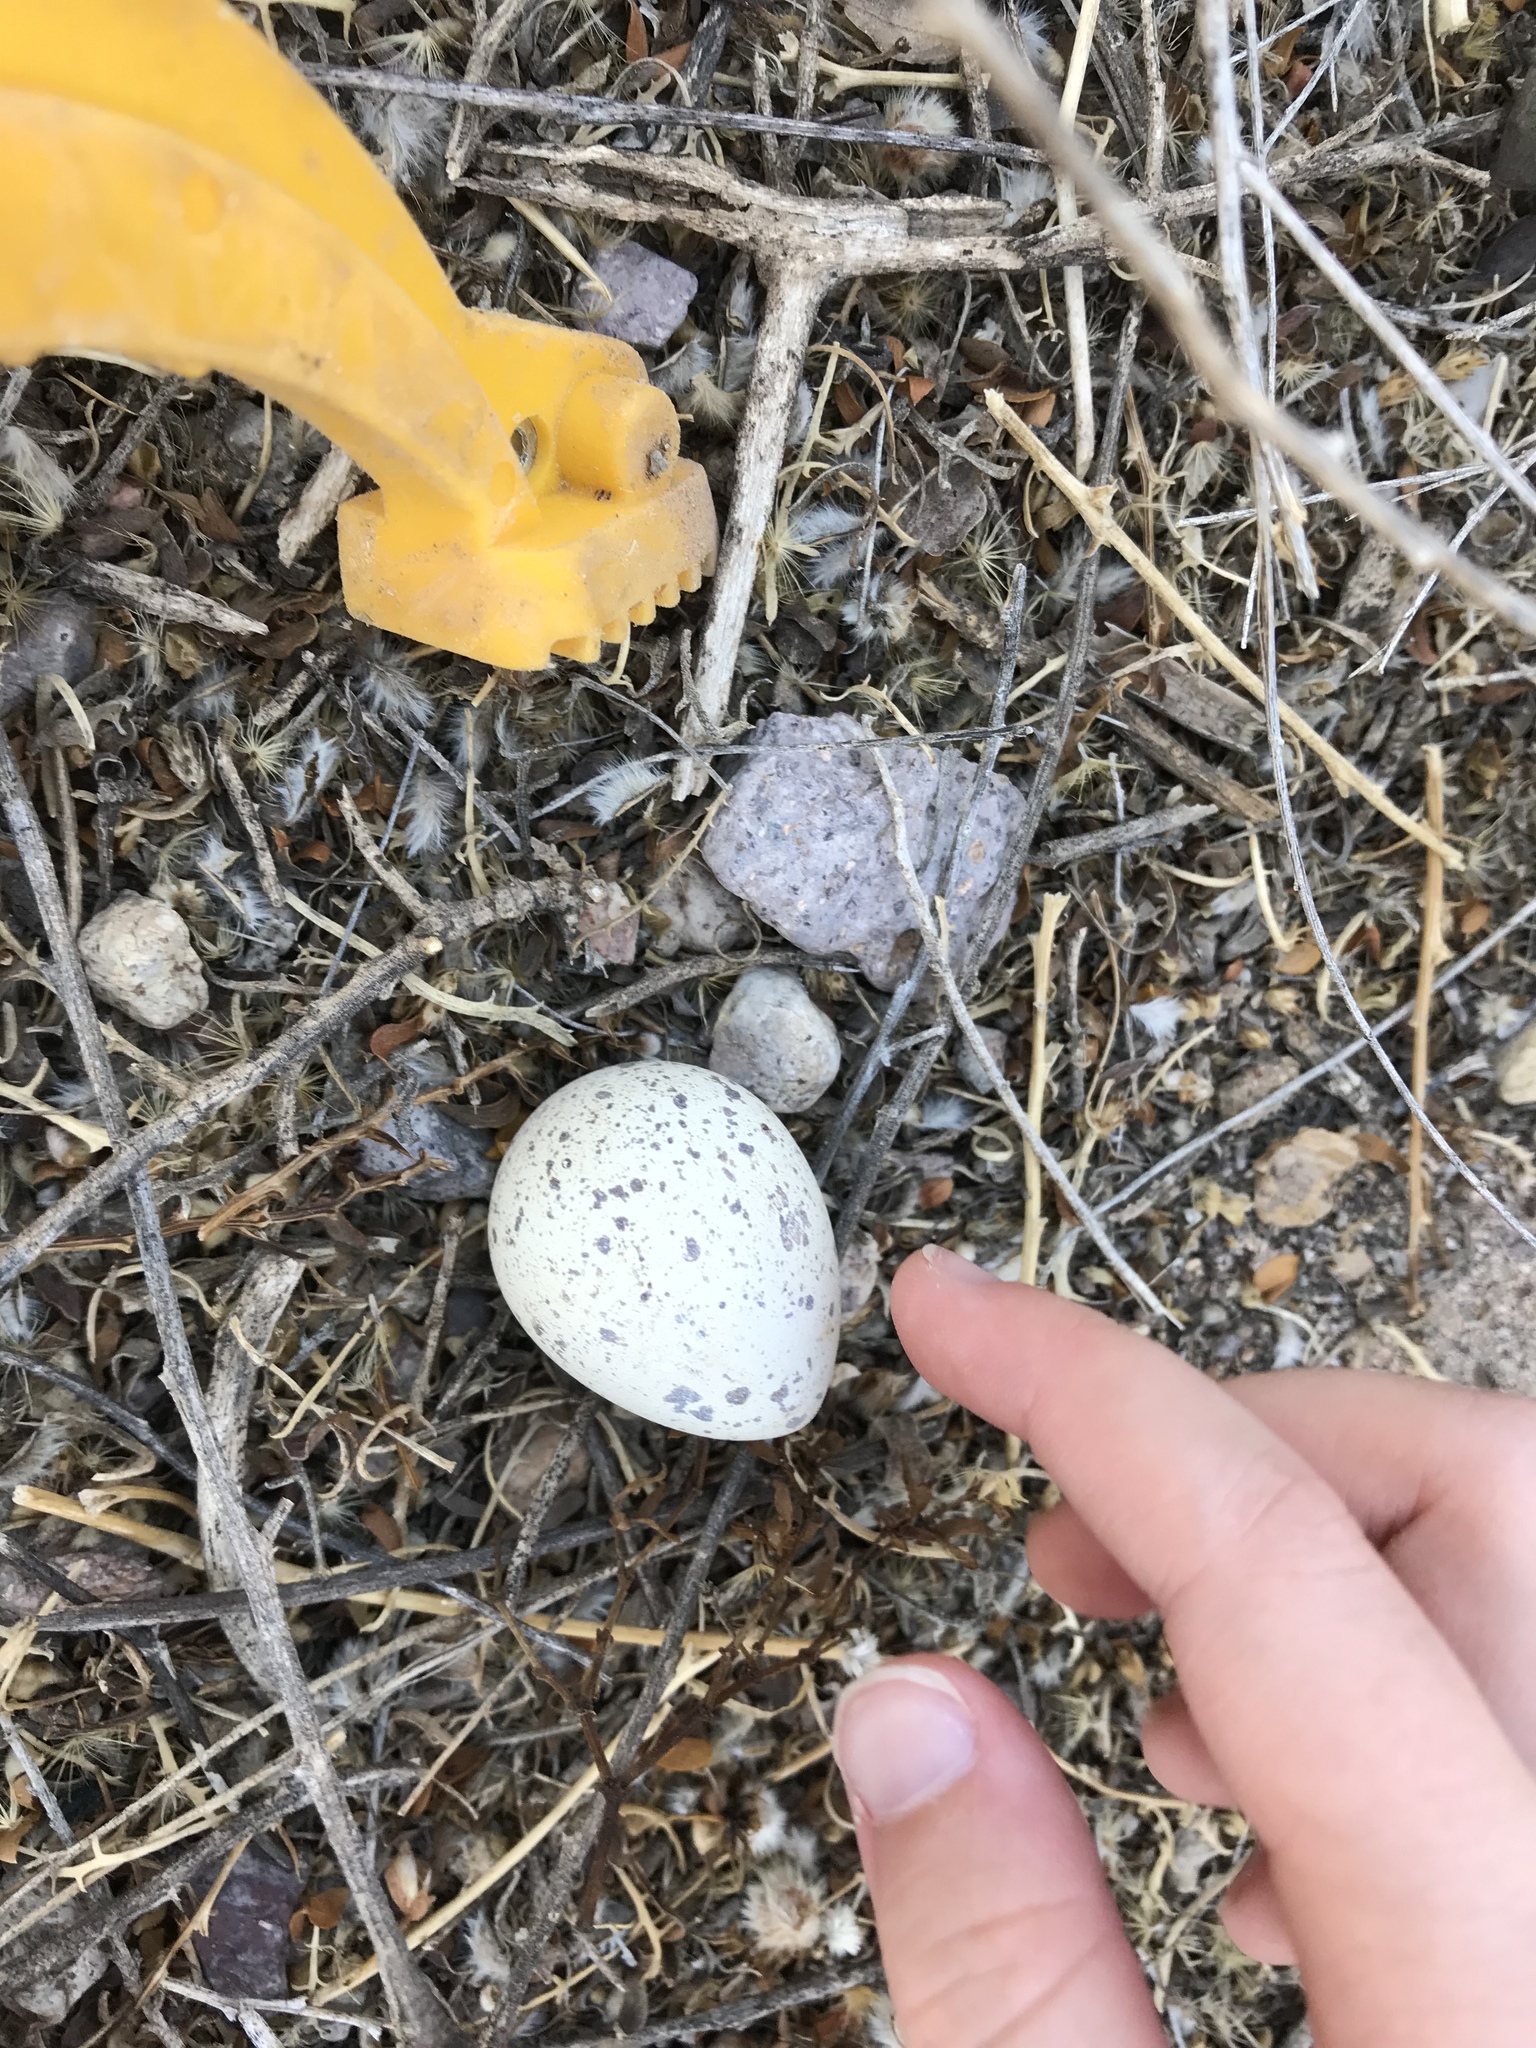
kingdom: Animalia
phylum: Chordata
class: Aves
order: Galliformes
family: Odontophoridae
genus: Callipepla
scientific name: Callipepla gambelii
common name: Gambel's quail
